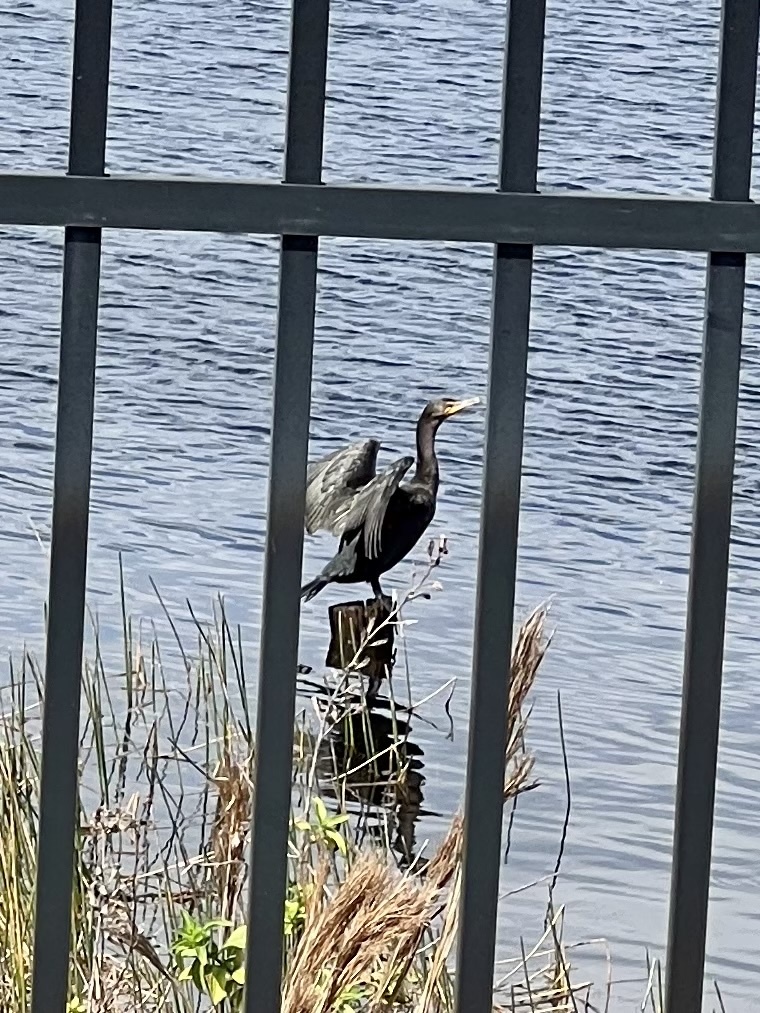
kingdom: Animalia
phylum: Chordata
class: Aves
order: Suliformes
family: Phalacrocoracidae
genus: Phalacrocorax
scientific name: Phalacrocorax auritus
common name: Double-crested cormorant
